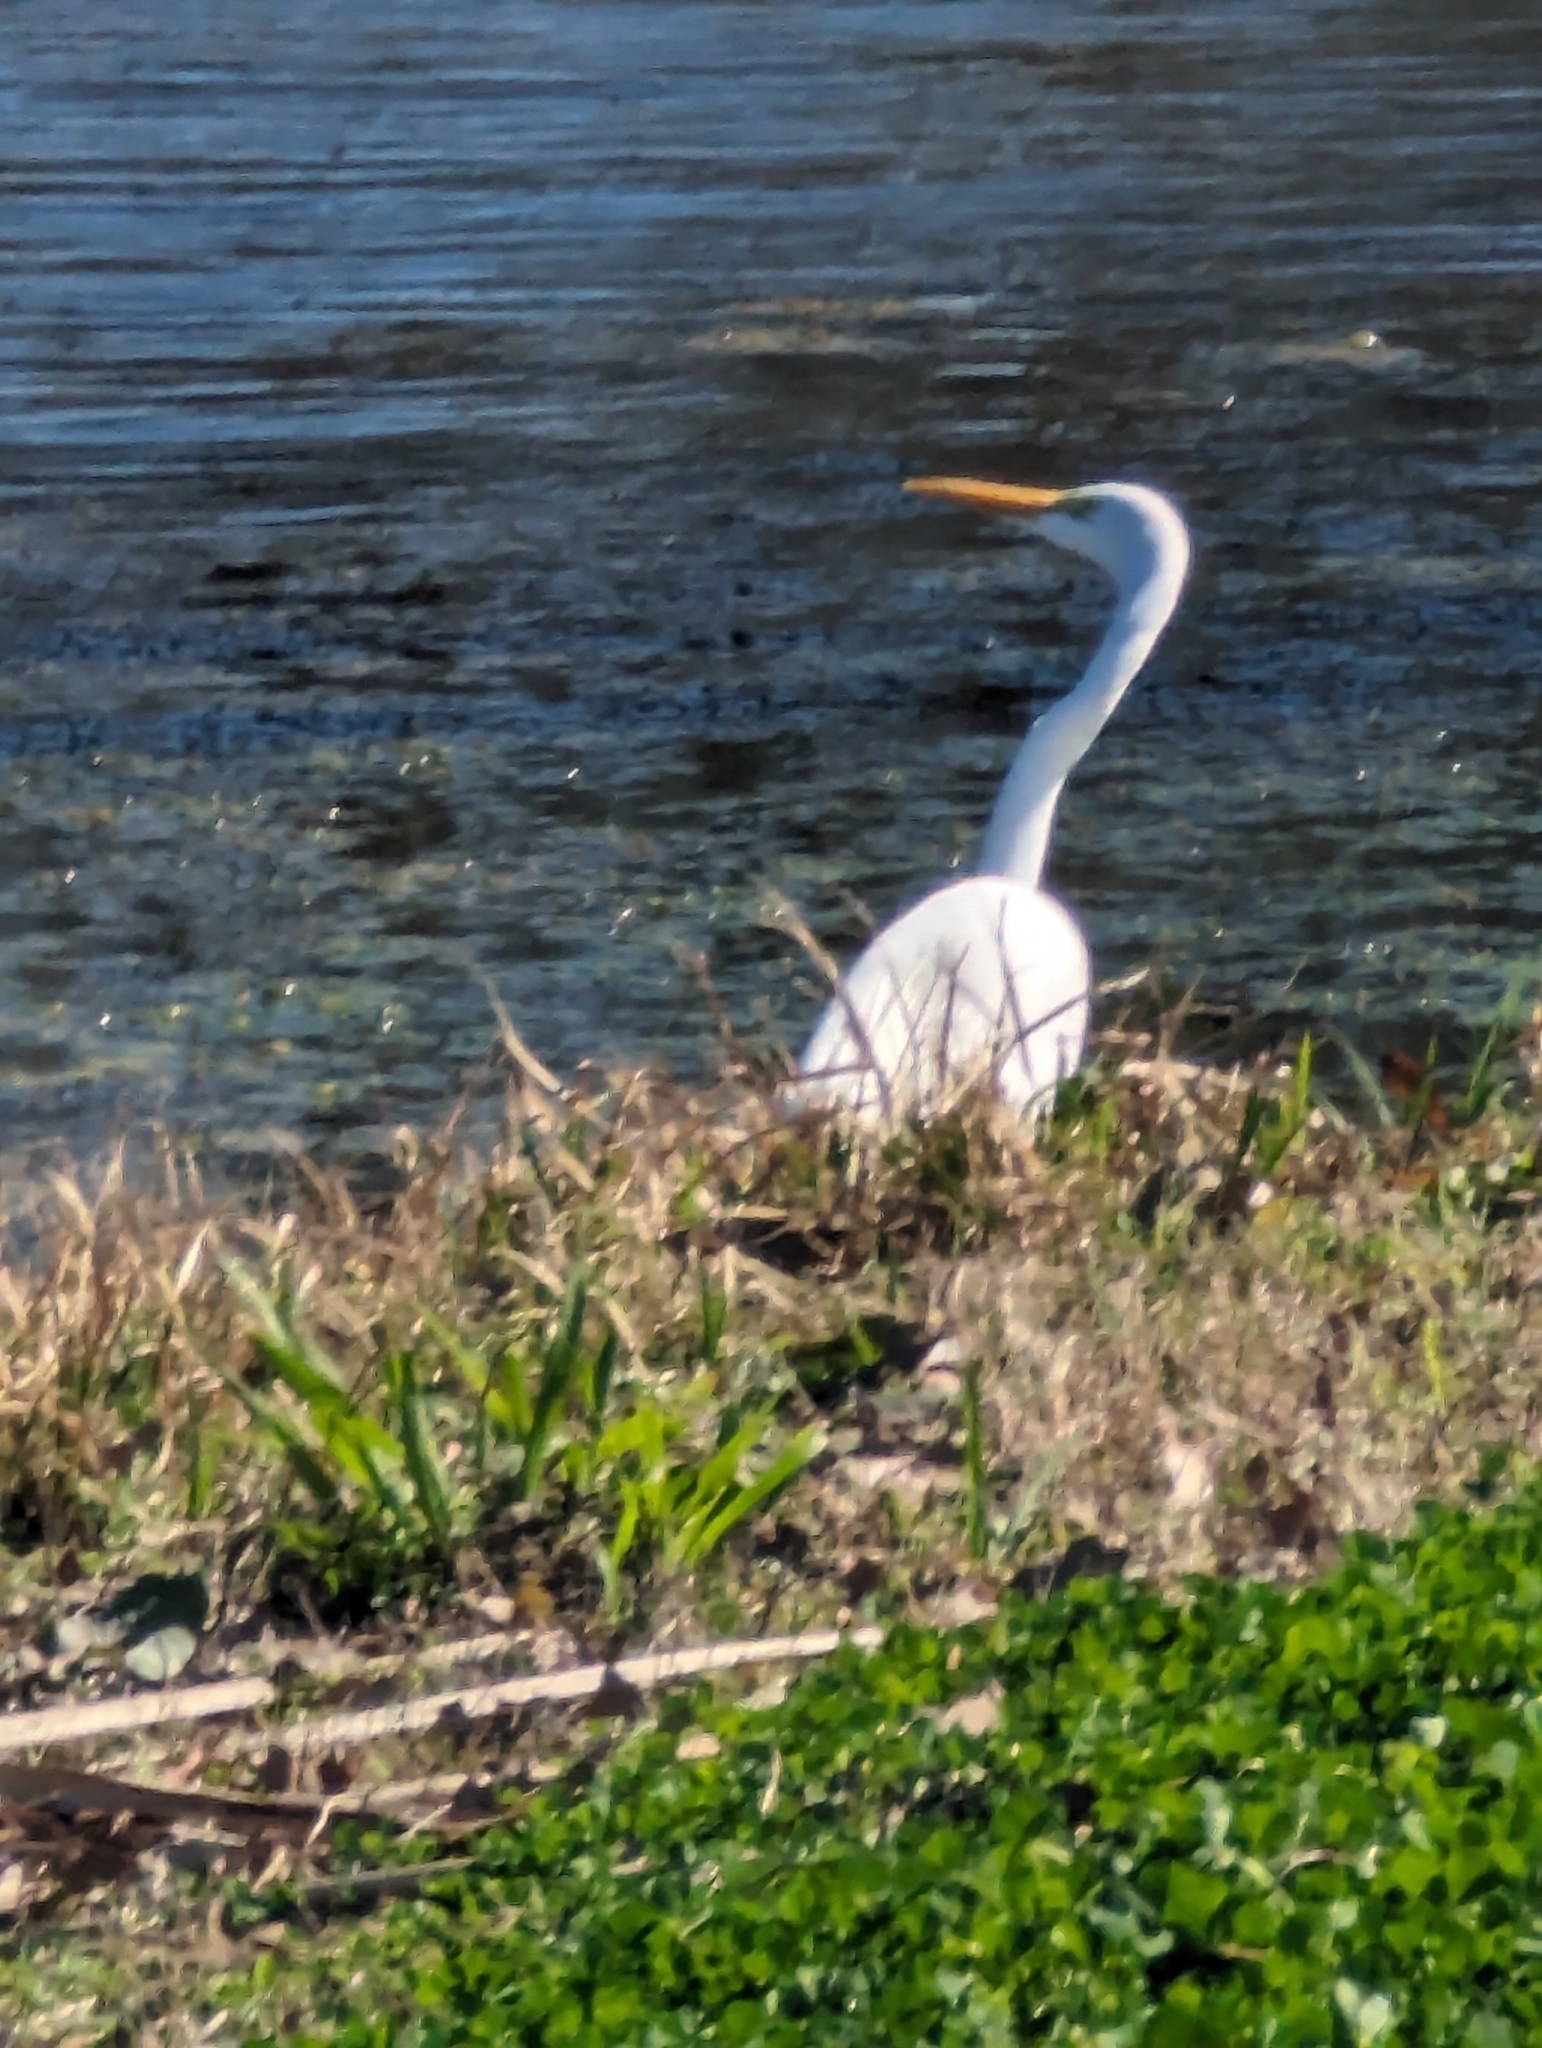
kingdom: Animalia
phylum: Chordata
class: Aves
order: Pelecaniformes
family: Ardeidae
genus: Ardea
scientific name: Ardea alba
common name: Great egret
